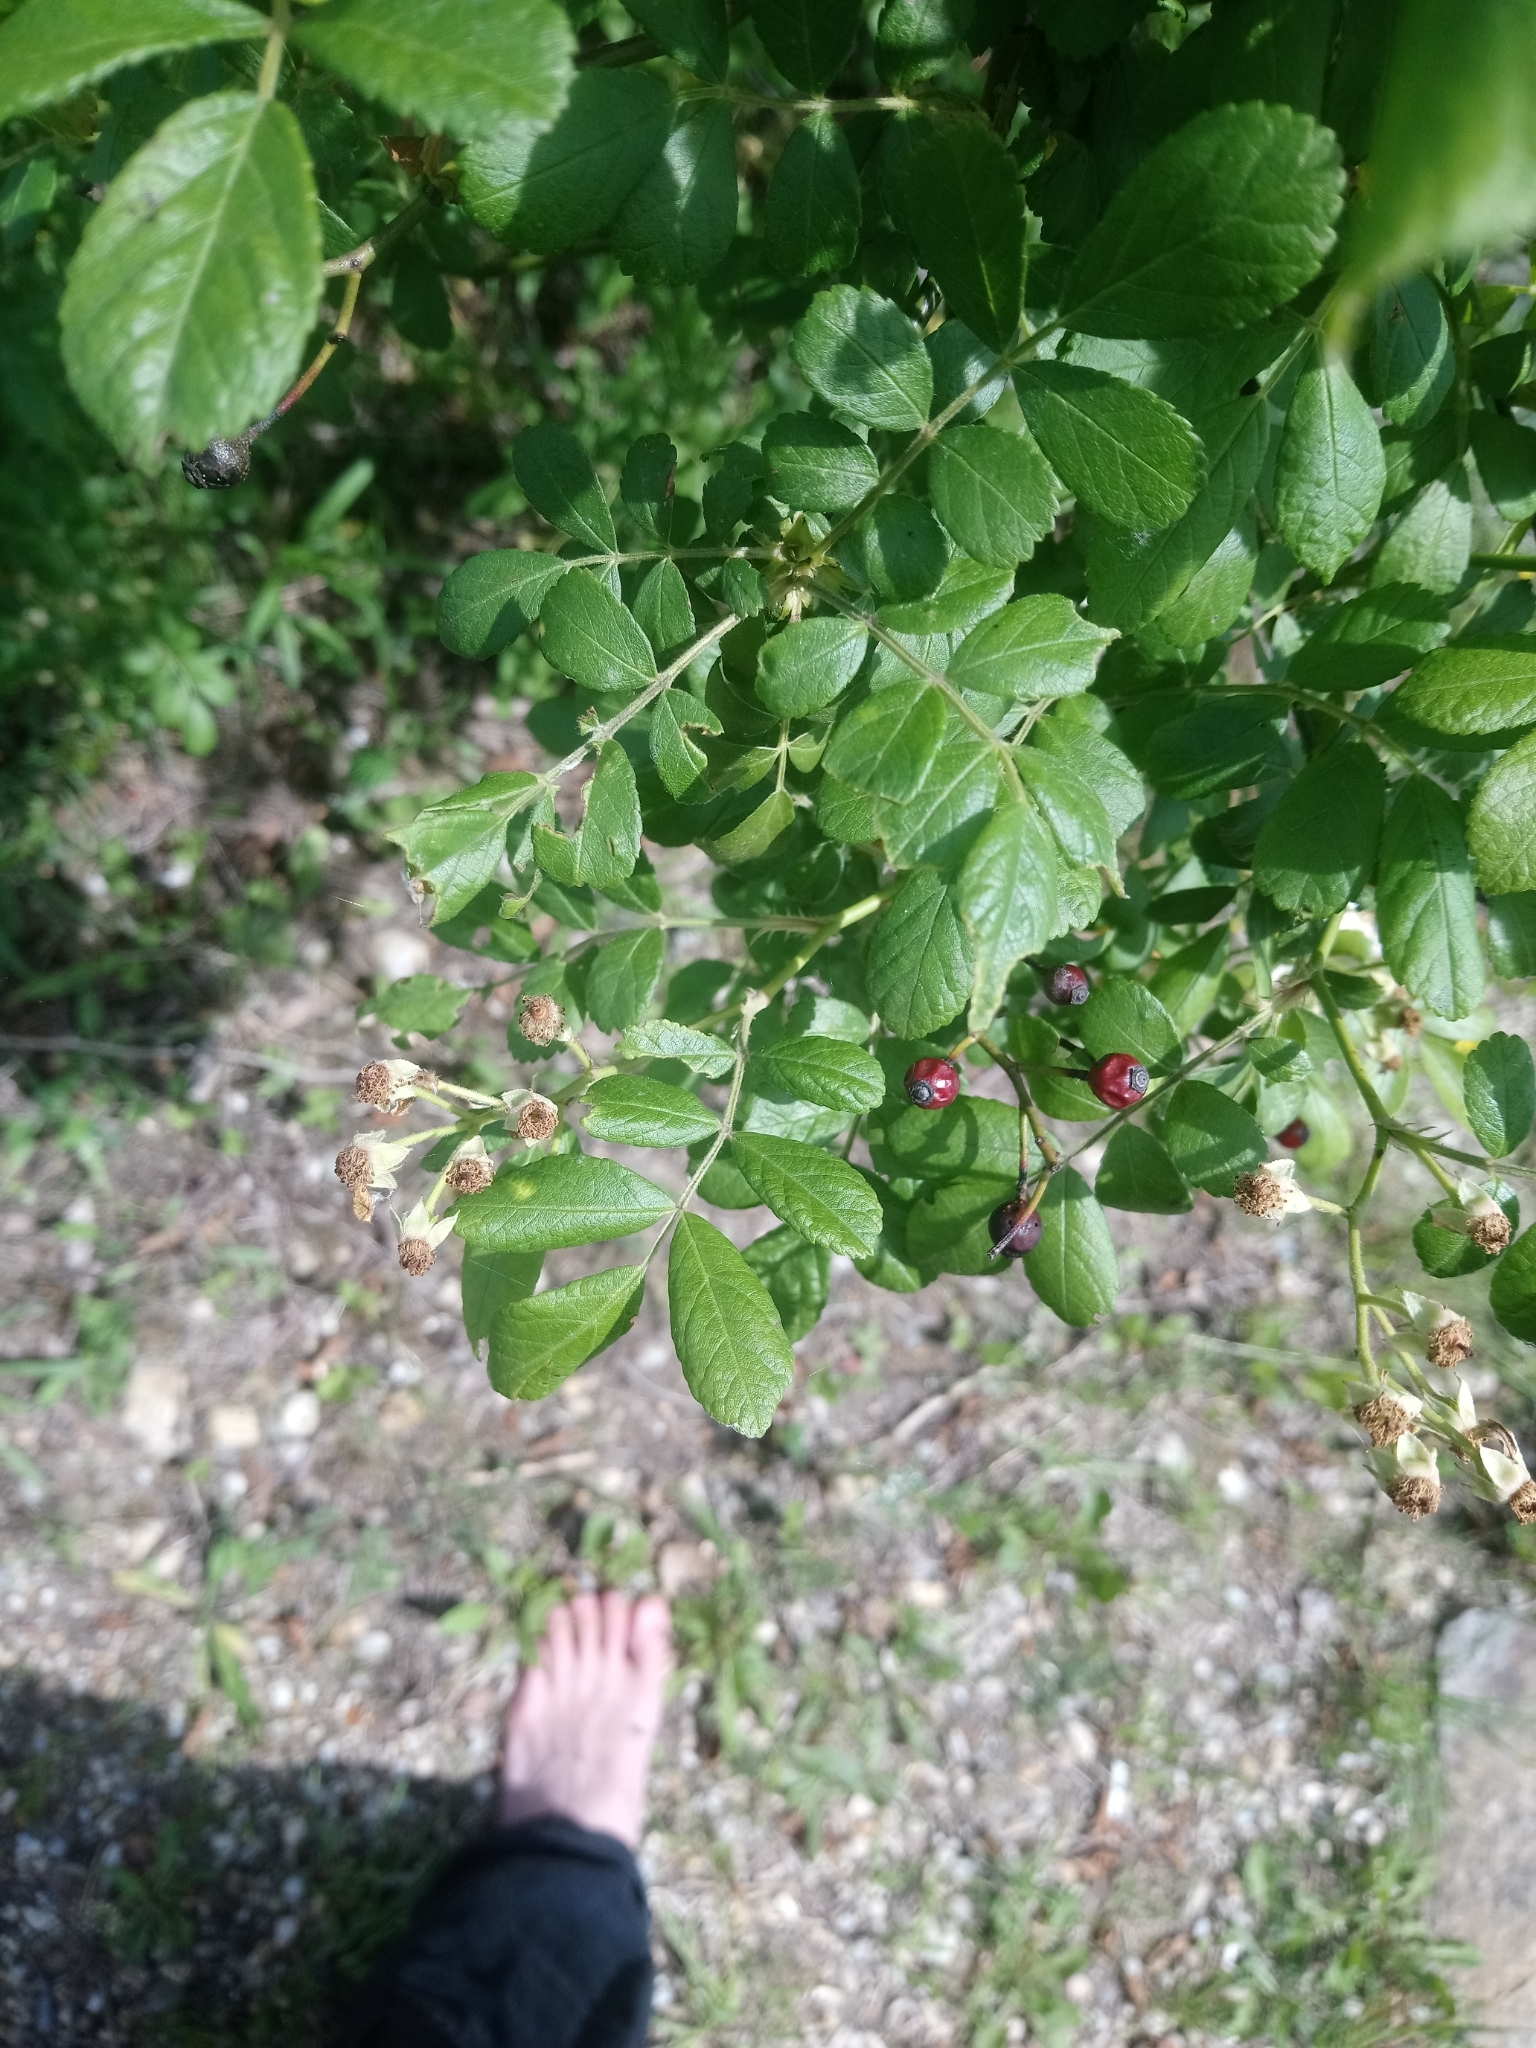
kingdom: Plantae
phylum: Tracheophyta
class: Magnoliopsida
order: Rosales
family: Rosaceae
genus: Rosa
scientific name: Rosa multiflora
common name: Multiflora rose
